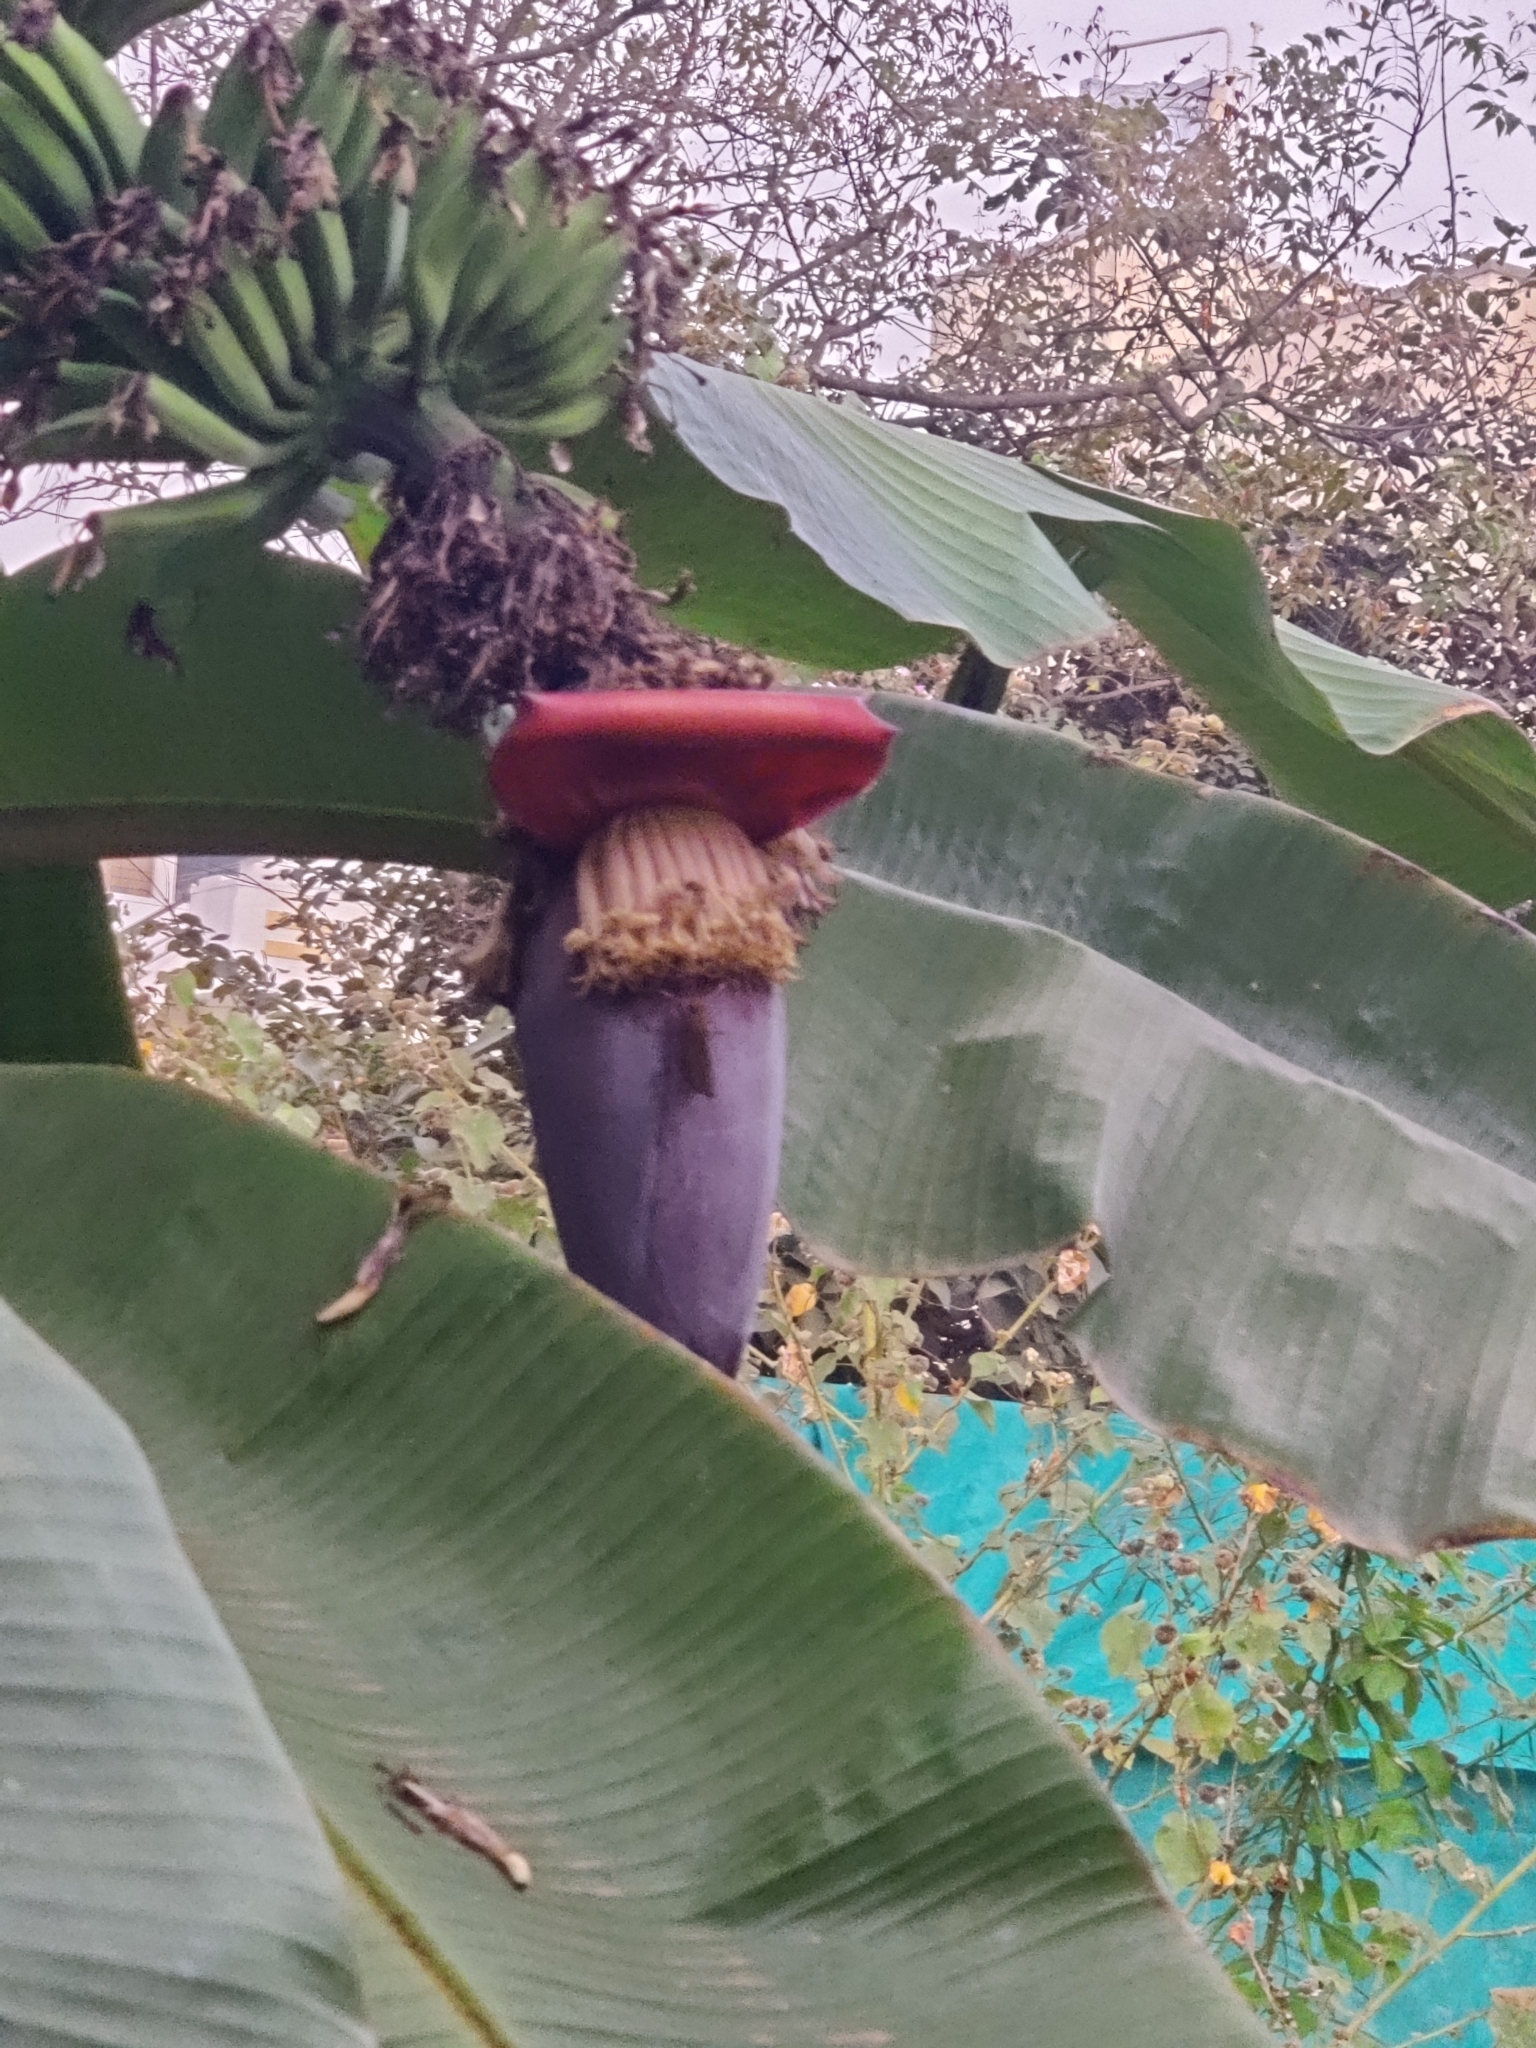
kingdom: Animalia
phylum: Arthropoda
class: Insecta
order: Lepidoptera
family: Hesperiidae
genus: Erionota
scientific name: Erionota torus
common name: Rounded palm-redeye
